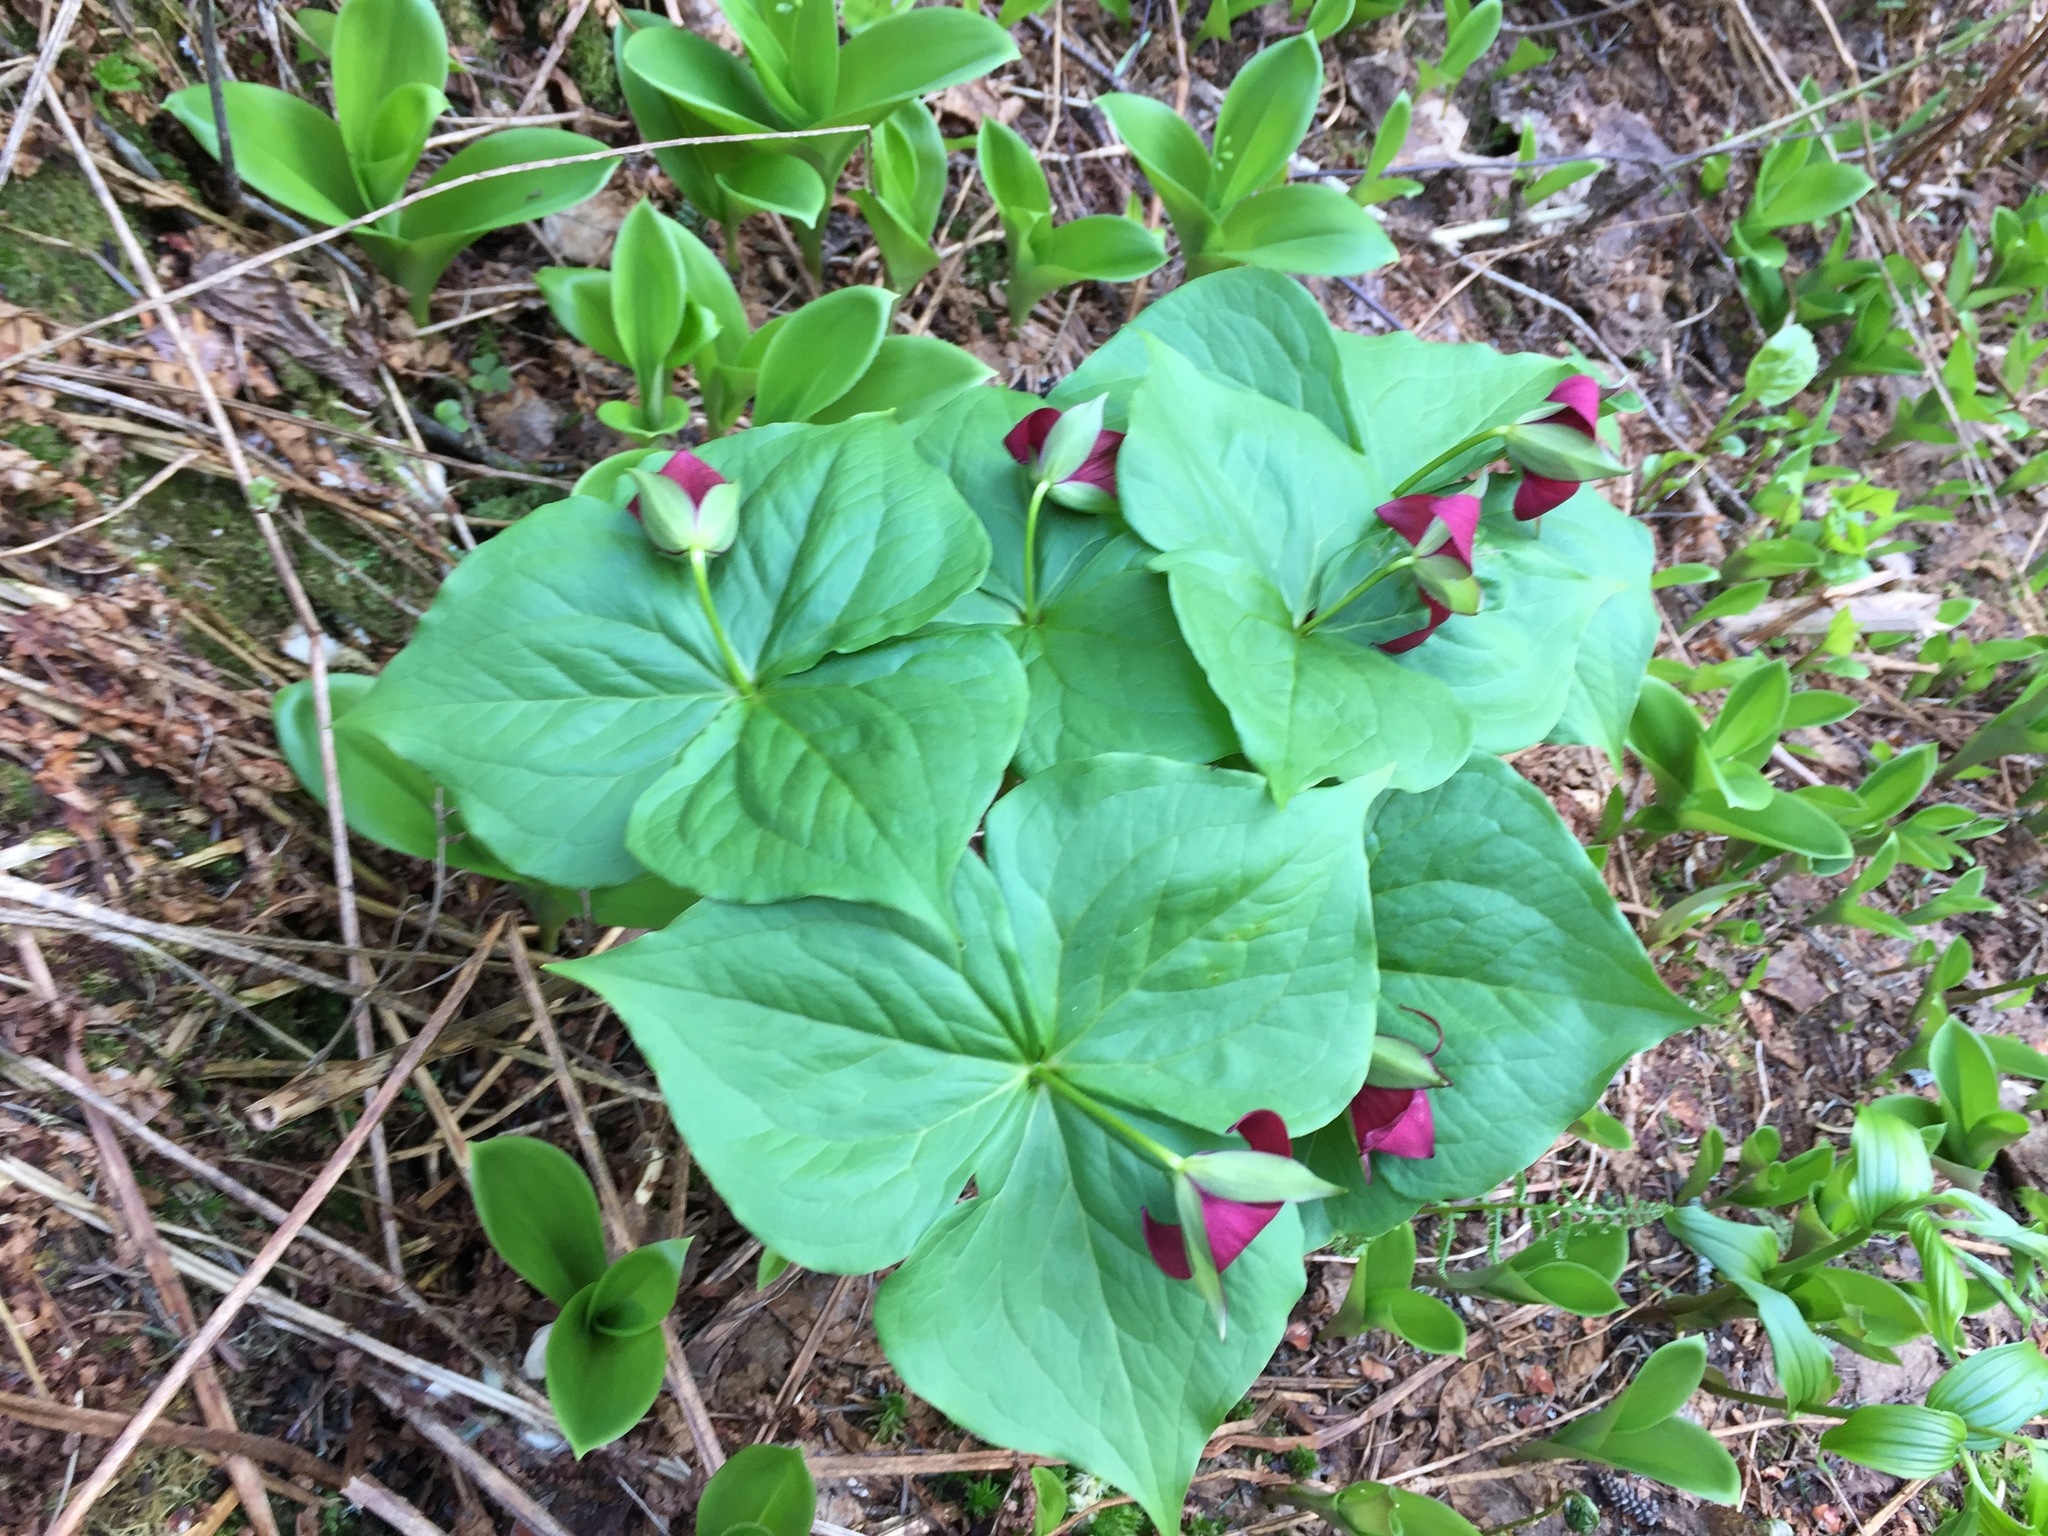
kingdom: Plantae
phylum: Tracheophyta
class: Liliopsida
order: Liliales
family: Melanthiaceae
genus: Trillium
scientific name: Trillium erectum
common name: Purple trillium
